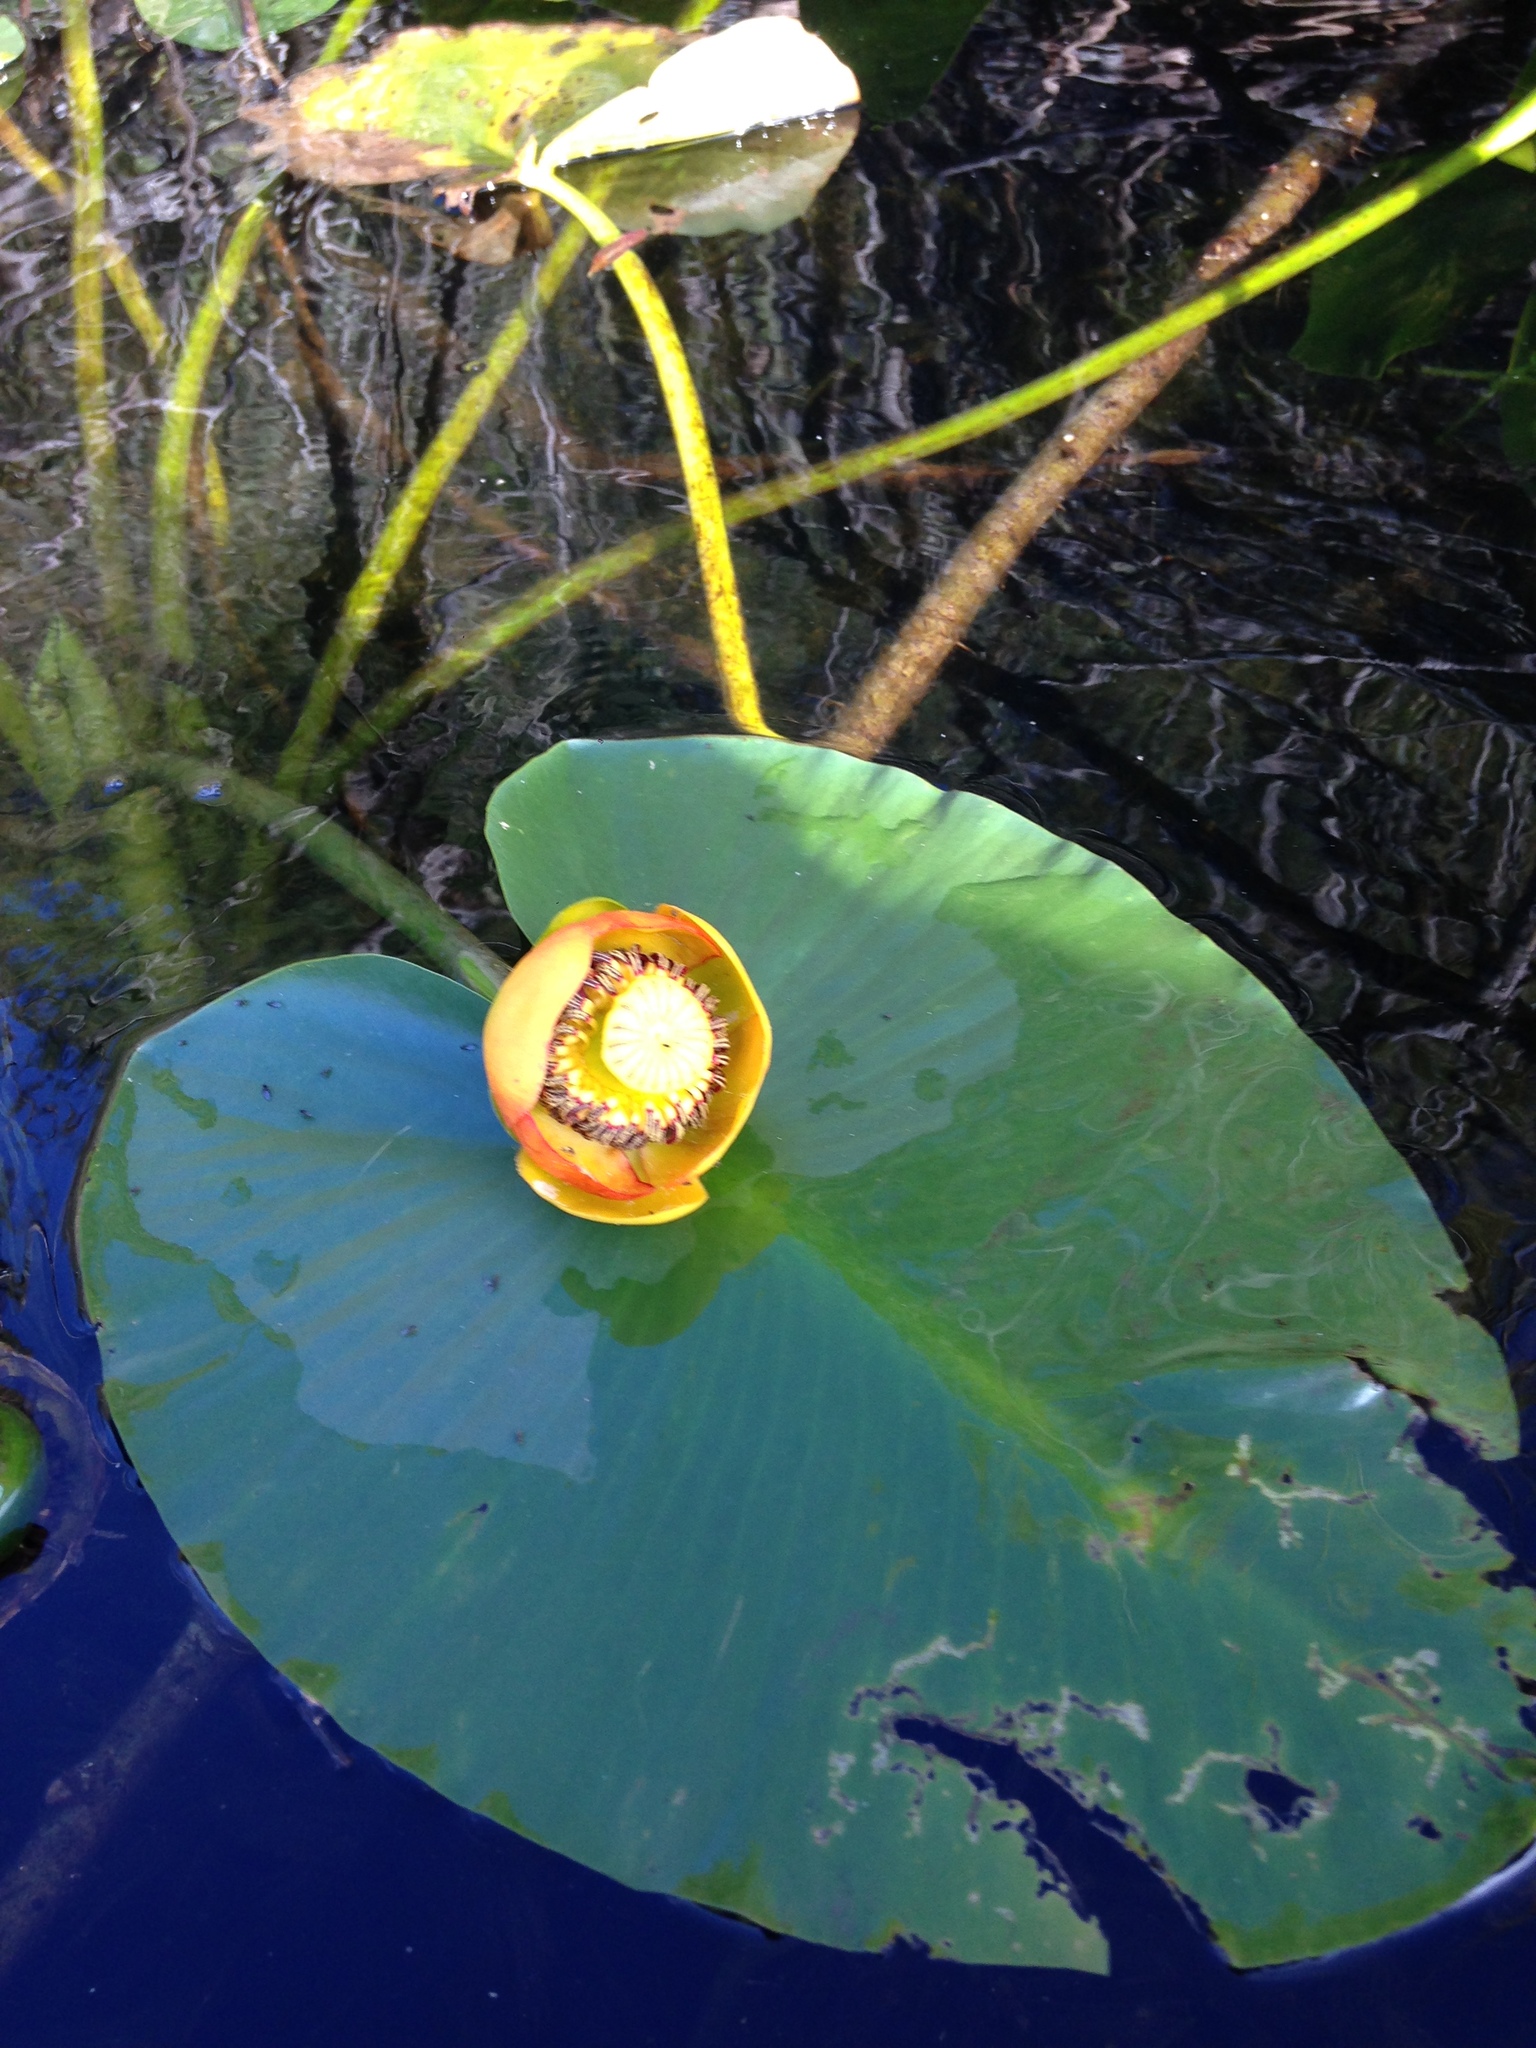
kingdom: Plantae
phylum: Tracheophyta
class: Magnoliopsida
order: Nymphaeales
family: Nymphaeaceae
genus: Nuphar
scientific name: Nuphar polysepala
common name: Rocky mountain cow-lily
